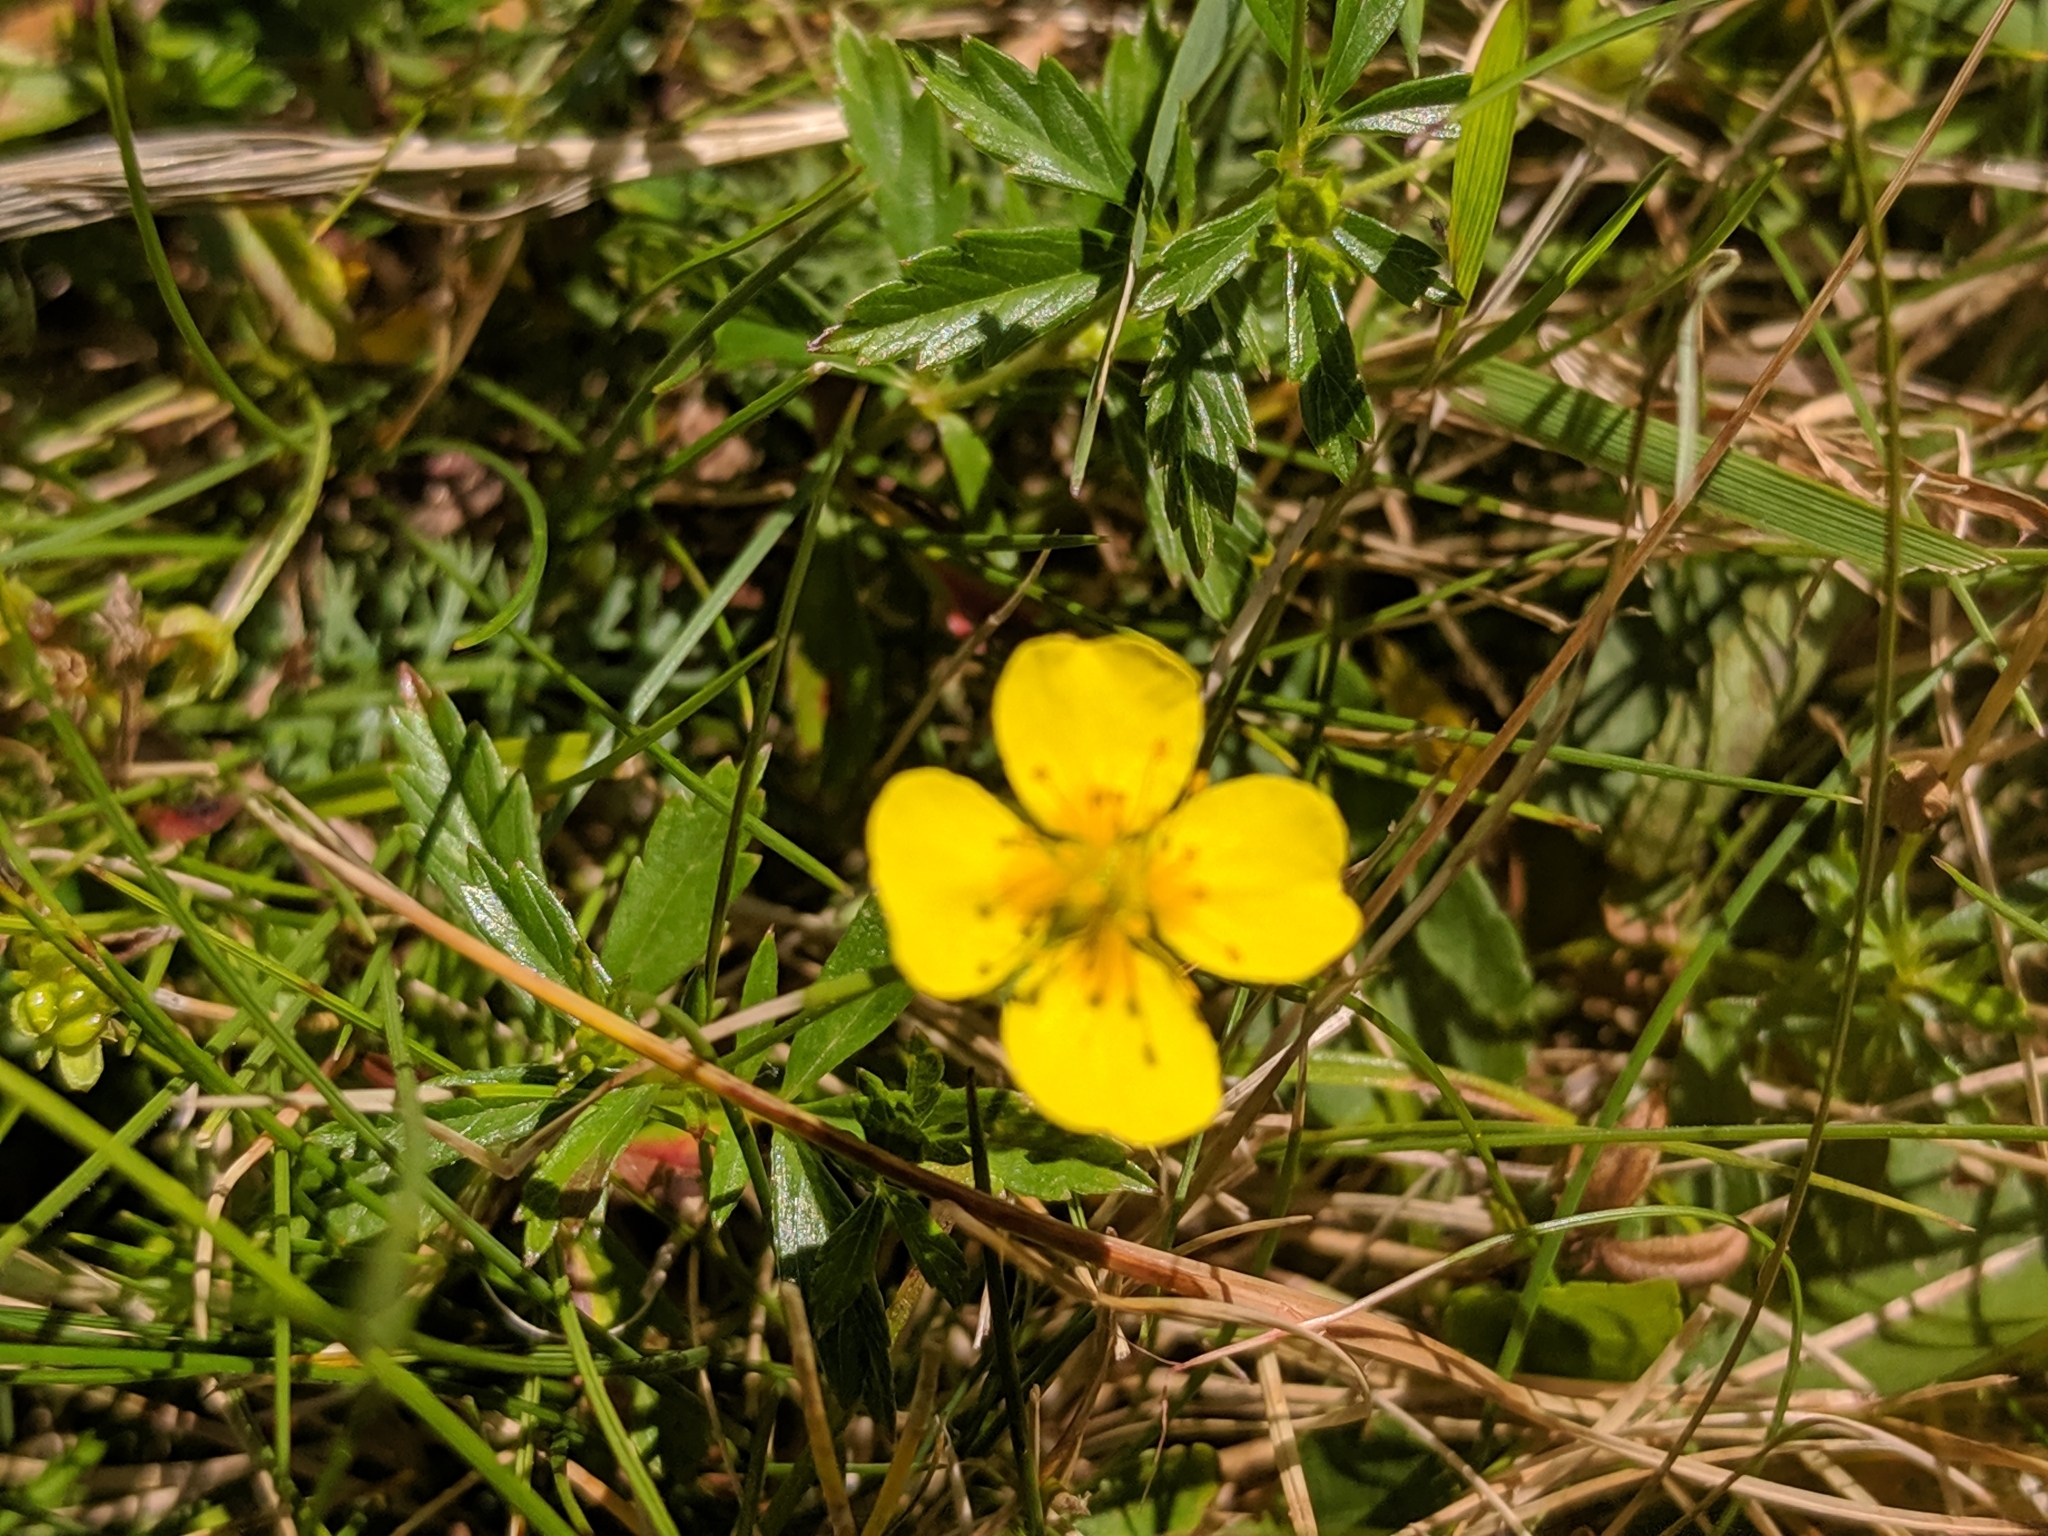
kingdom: Plantae
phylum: Tracheophyta
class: Magnoliopsida
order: Rosales
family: Rosaceae
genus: Potentilla
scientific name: Potentilla erecta
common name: Tormentil
